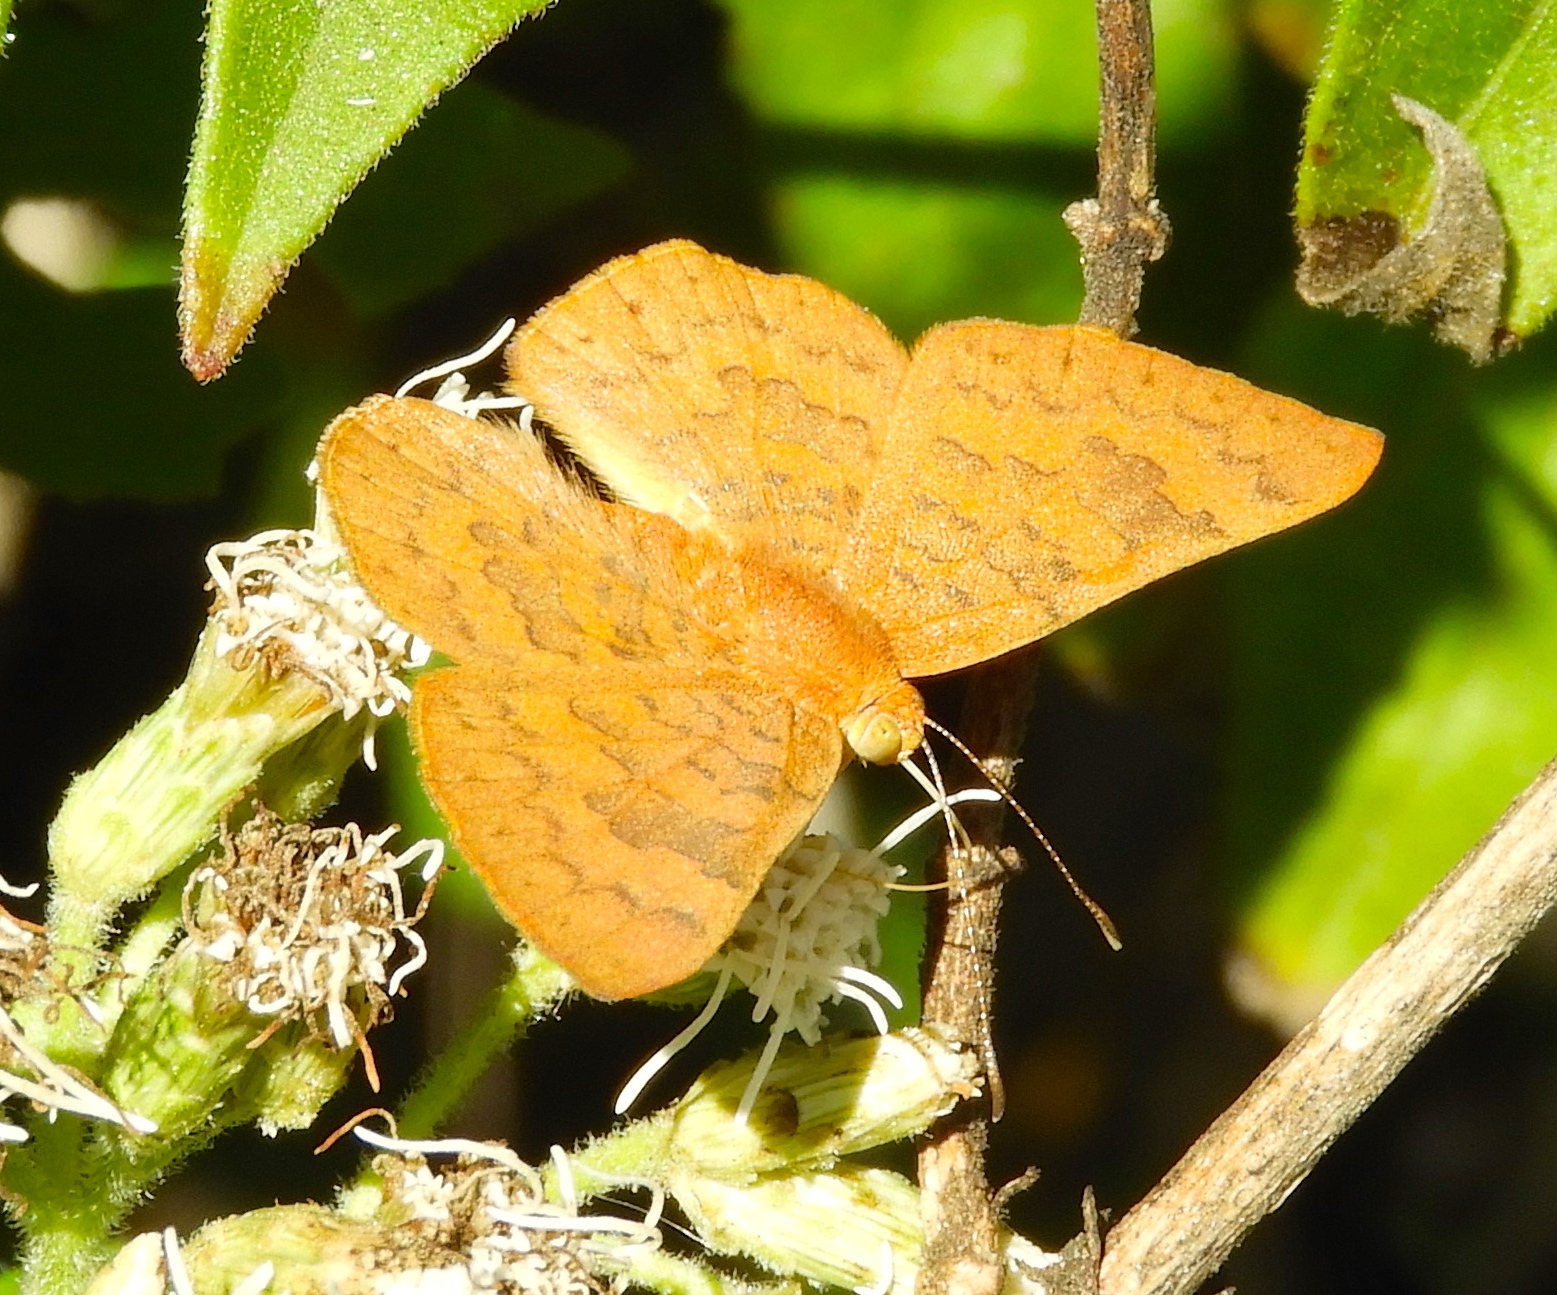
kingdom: Animalia
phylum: Arthropoda
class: Insecta
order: Lepidoptera
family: Lycaenidae
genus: Emesis
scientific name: Emesis
